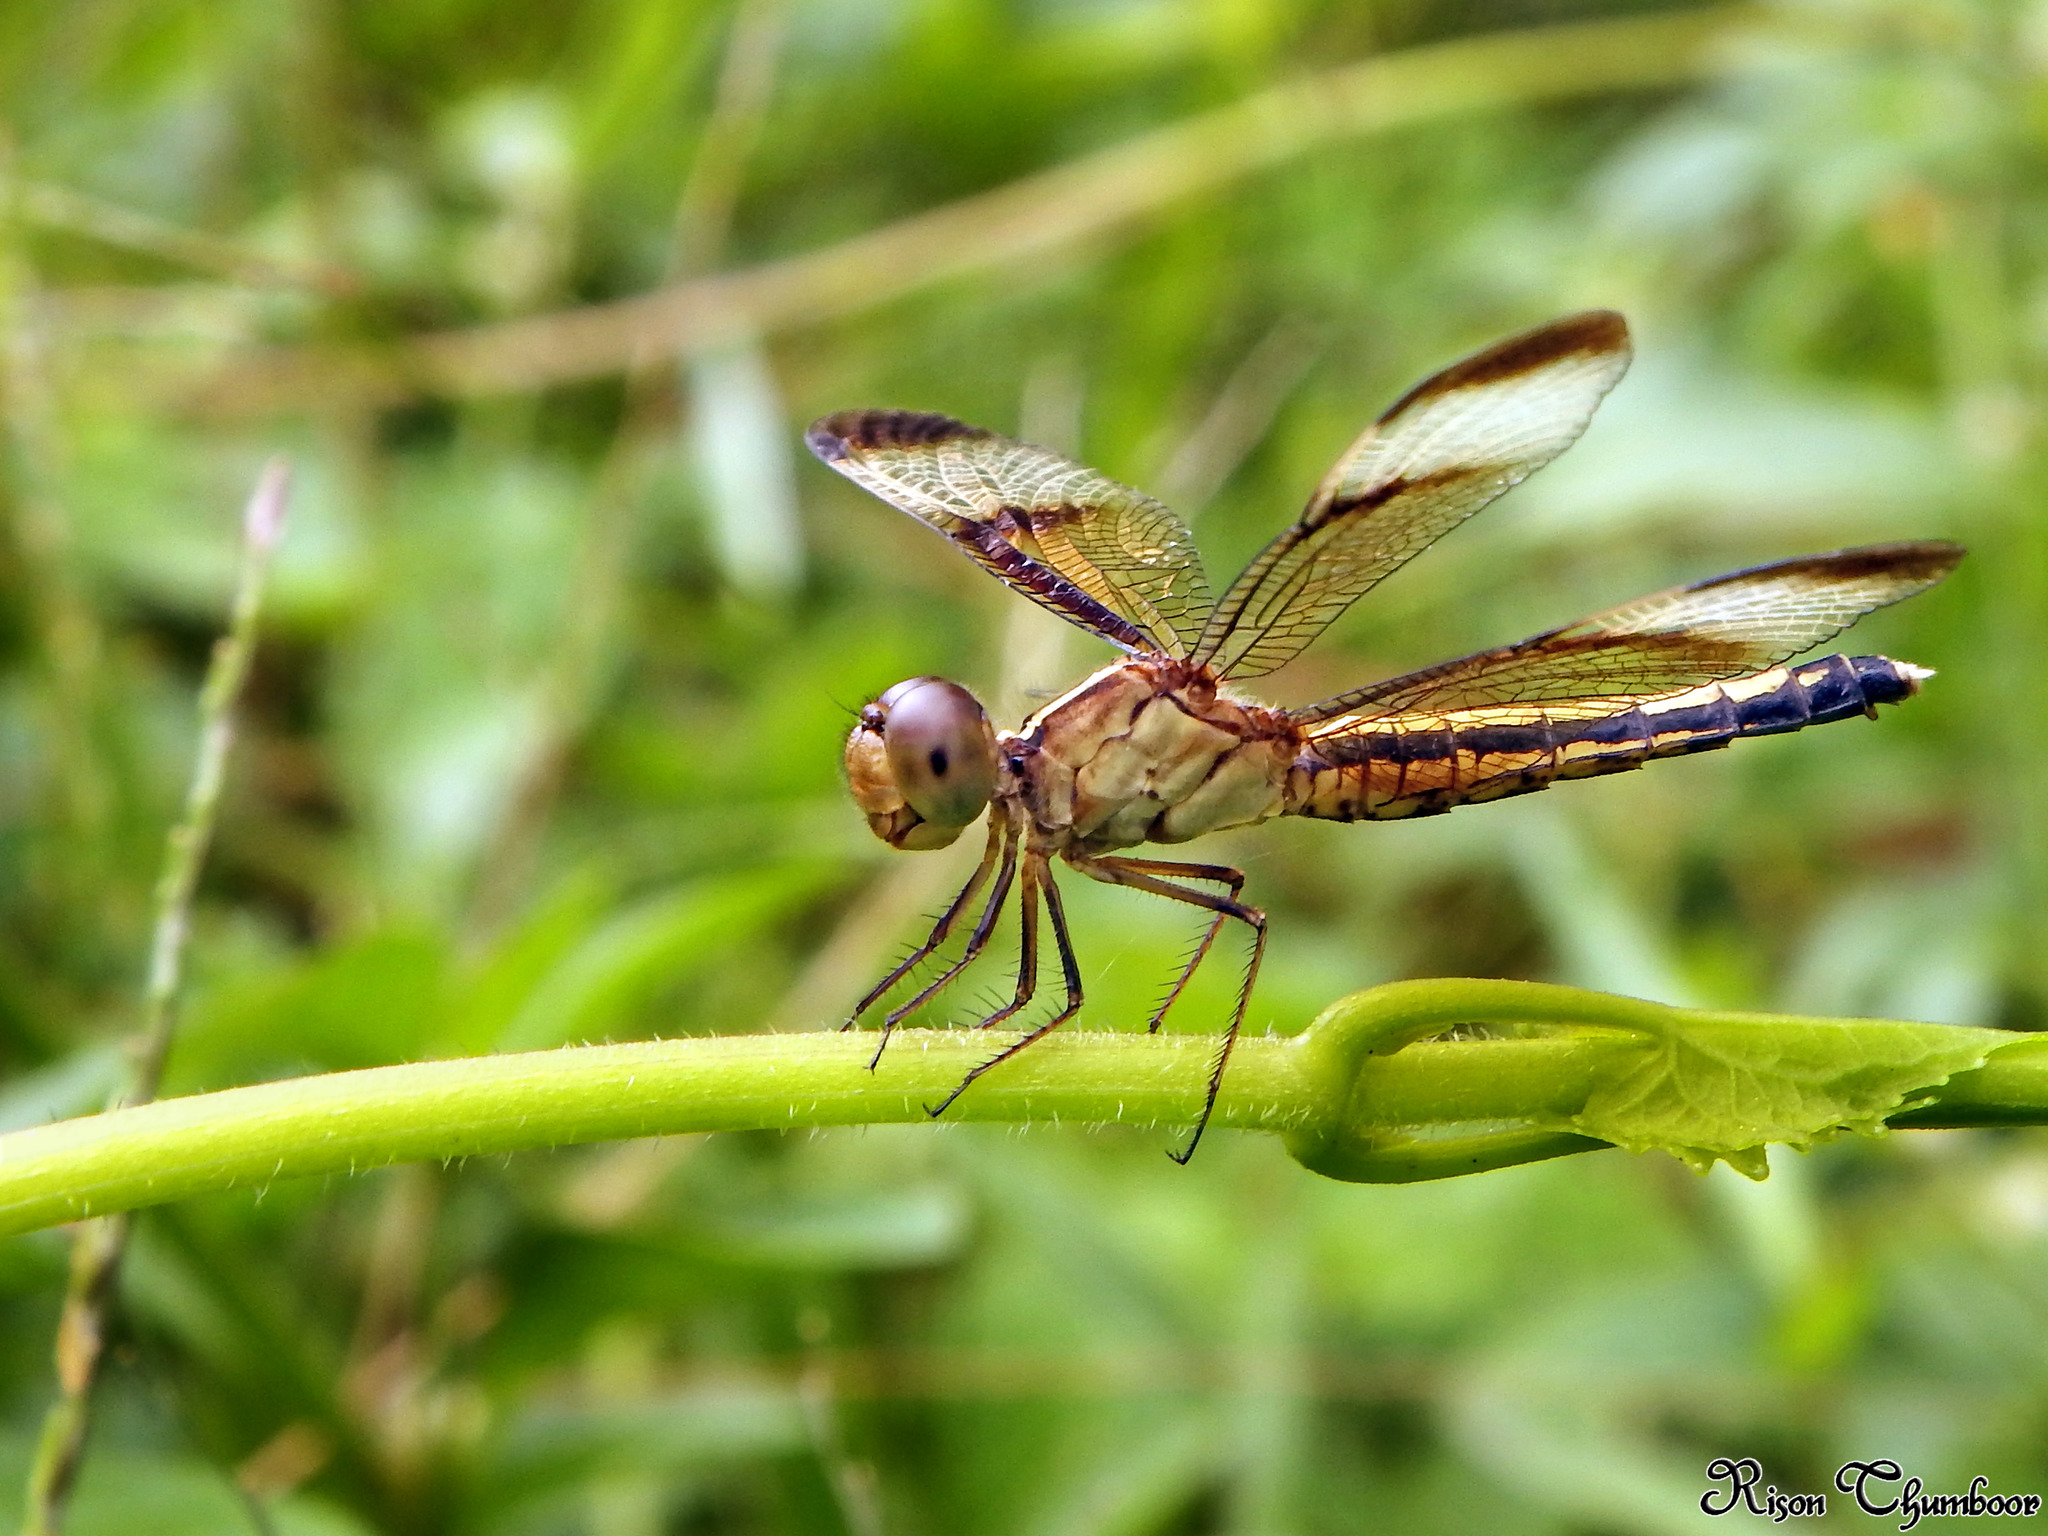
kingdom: Animalia
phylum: Arthropoda
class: Insecta
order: Odonata
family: Libellulidae
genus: Neurothemis
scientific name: Neurothemis tullia
